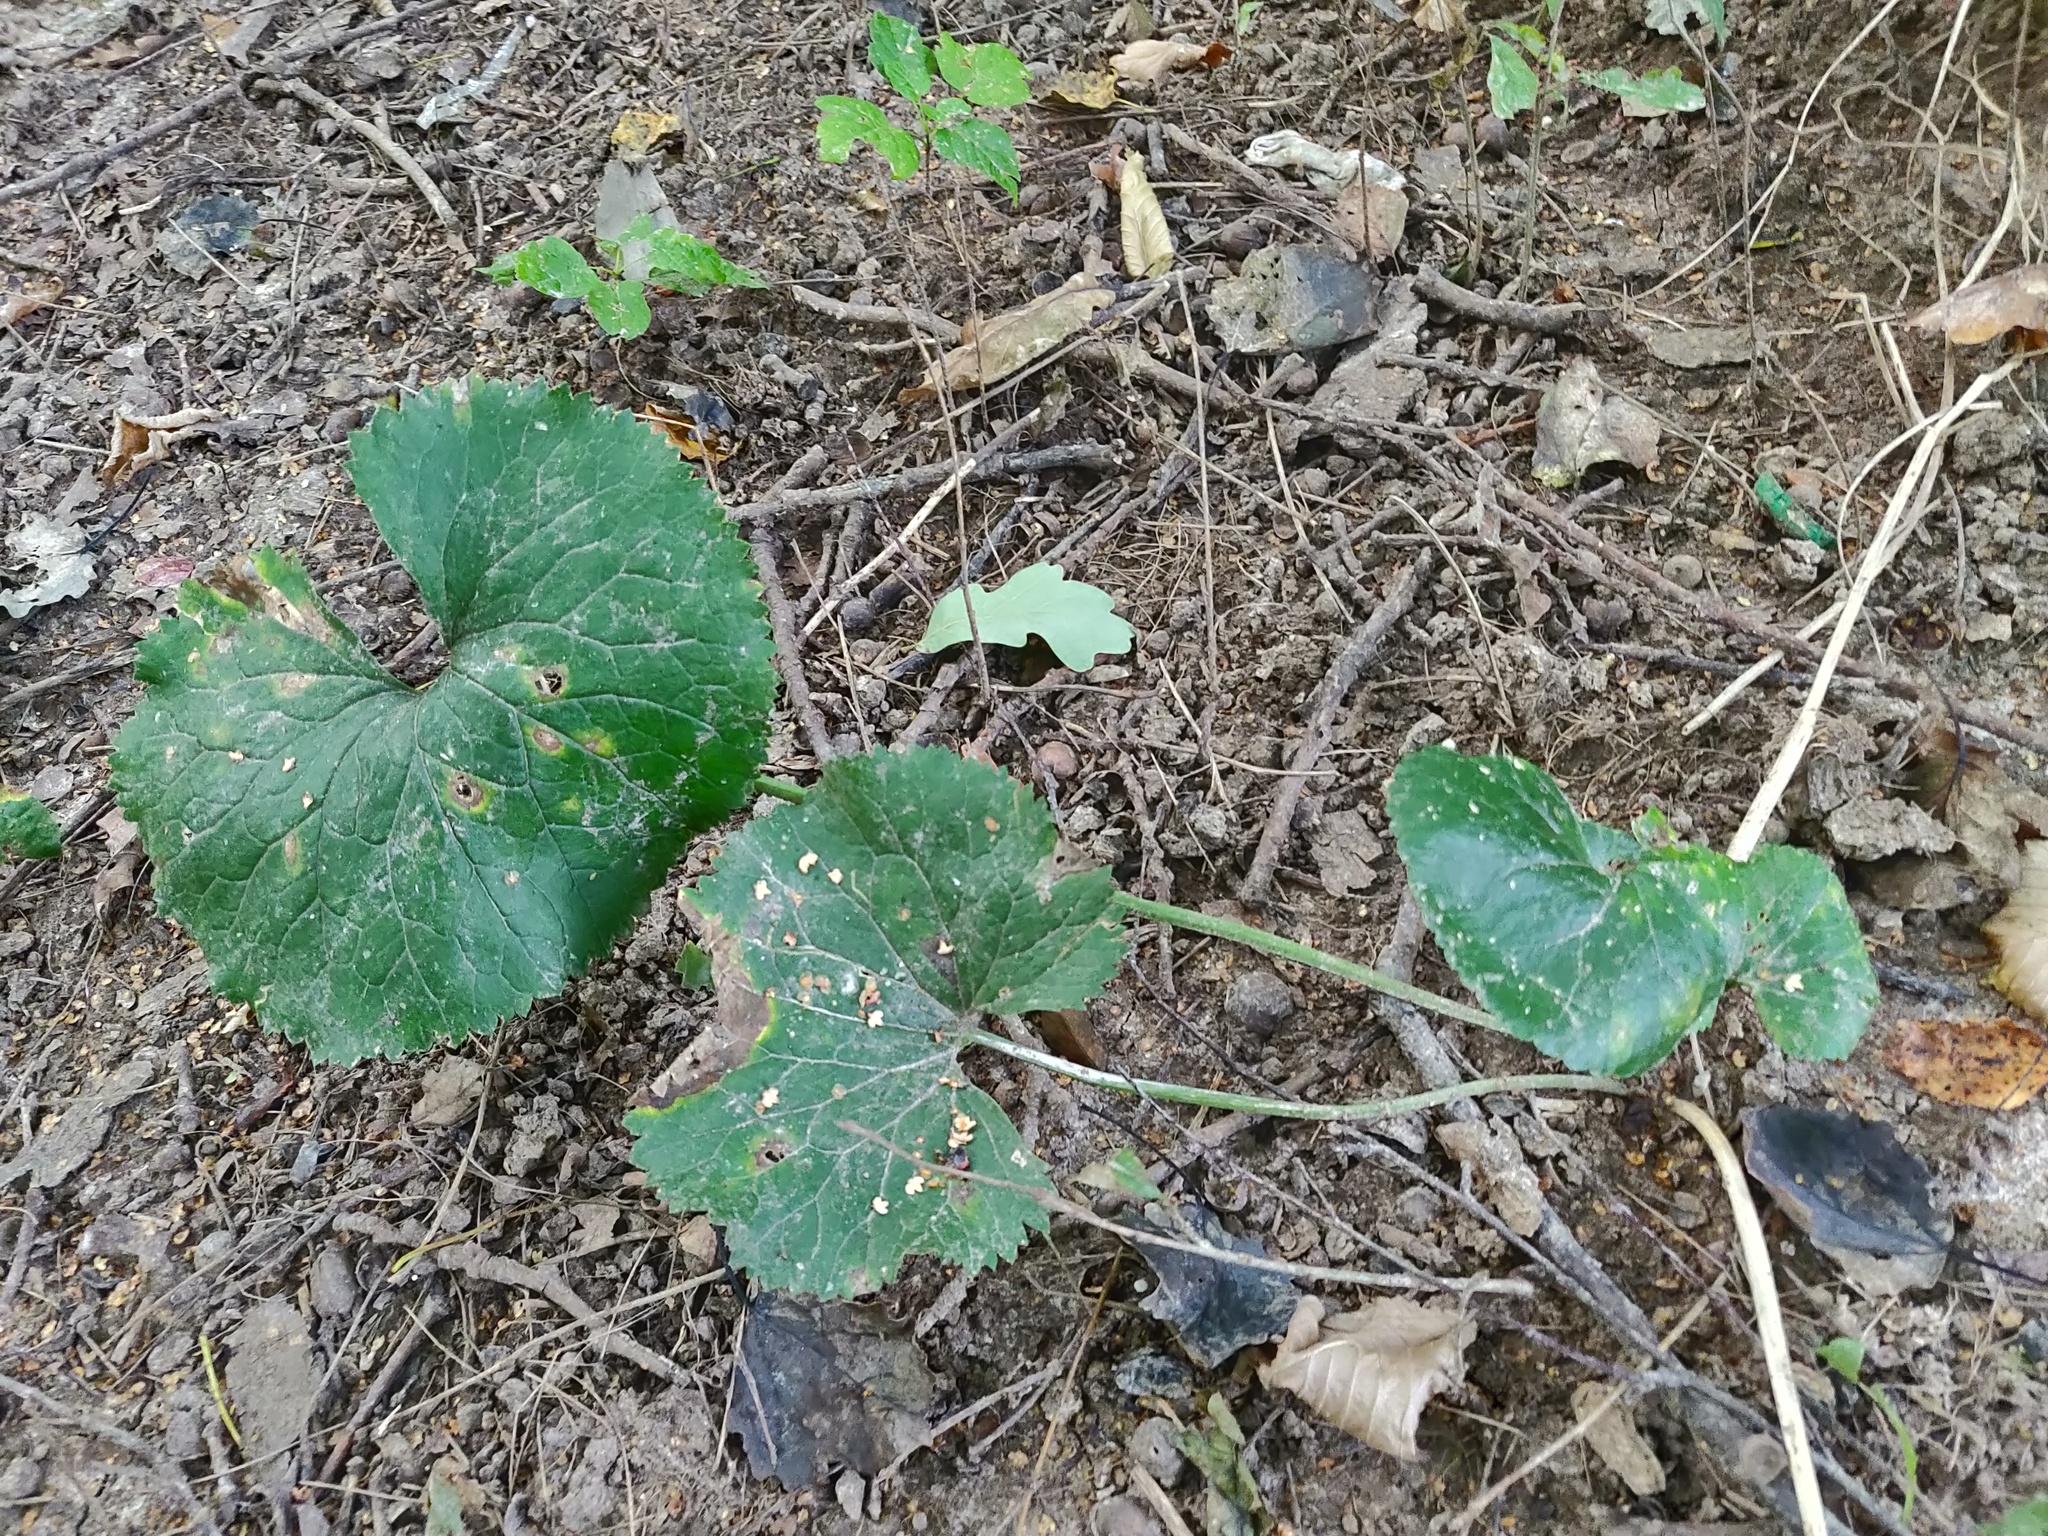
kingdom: Plantae
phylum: Tracheophyta
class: Magnoliopsida
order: Ranunculales
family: Ranunculaceae
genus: Ranunculus
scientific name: Ranunculus cassubicus
